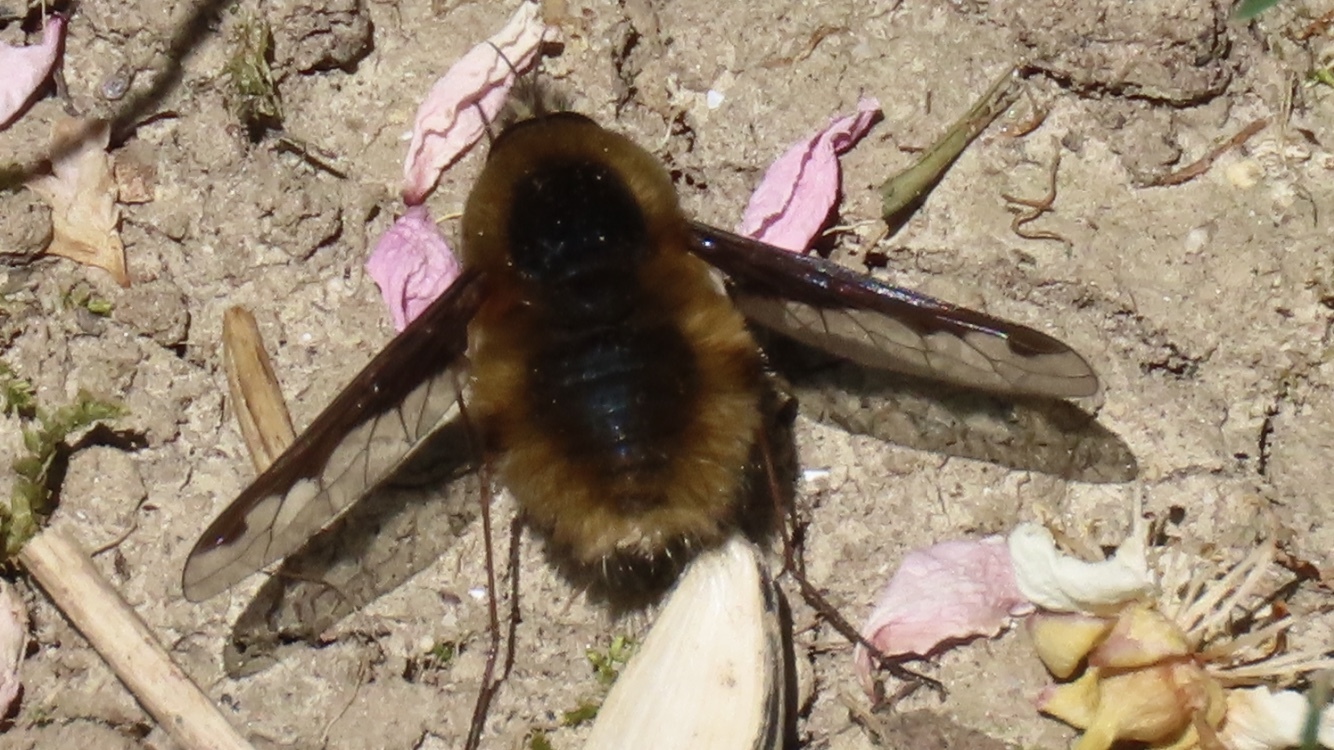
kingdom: Animalia
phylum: Arthropoda
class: Insecta
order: Diptera
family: Bombyliidae
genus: Bombylius
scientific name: Bombylius major
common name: Bee fly
